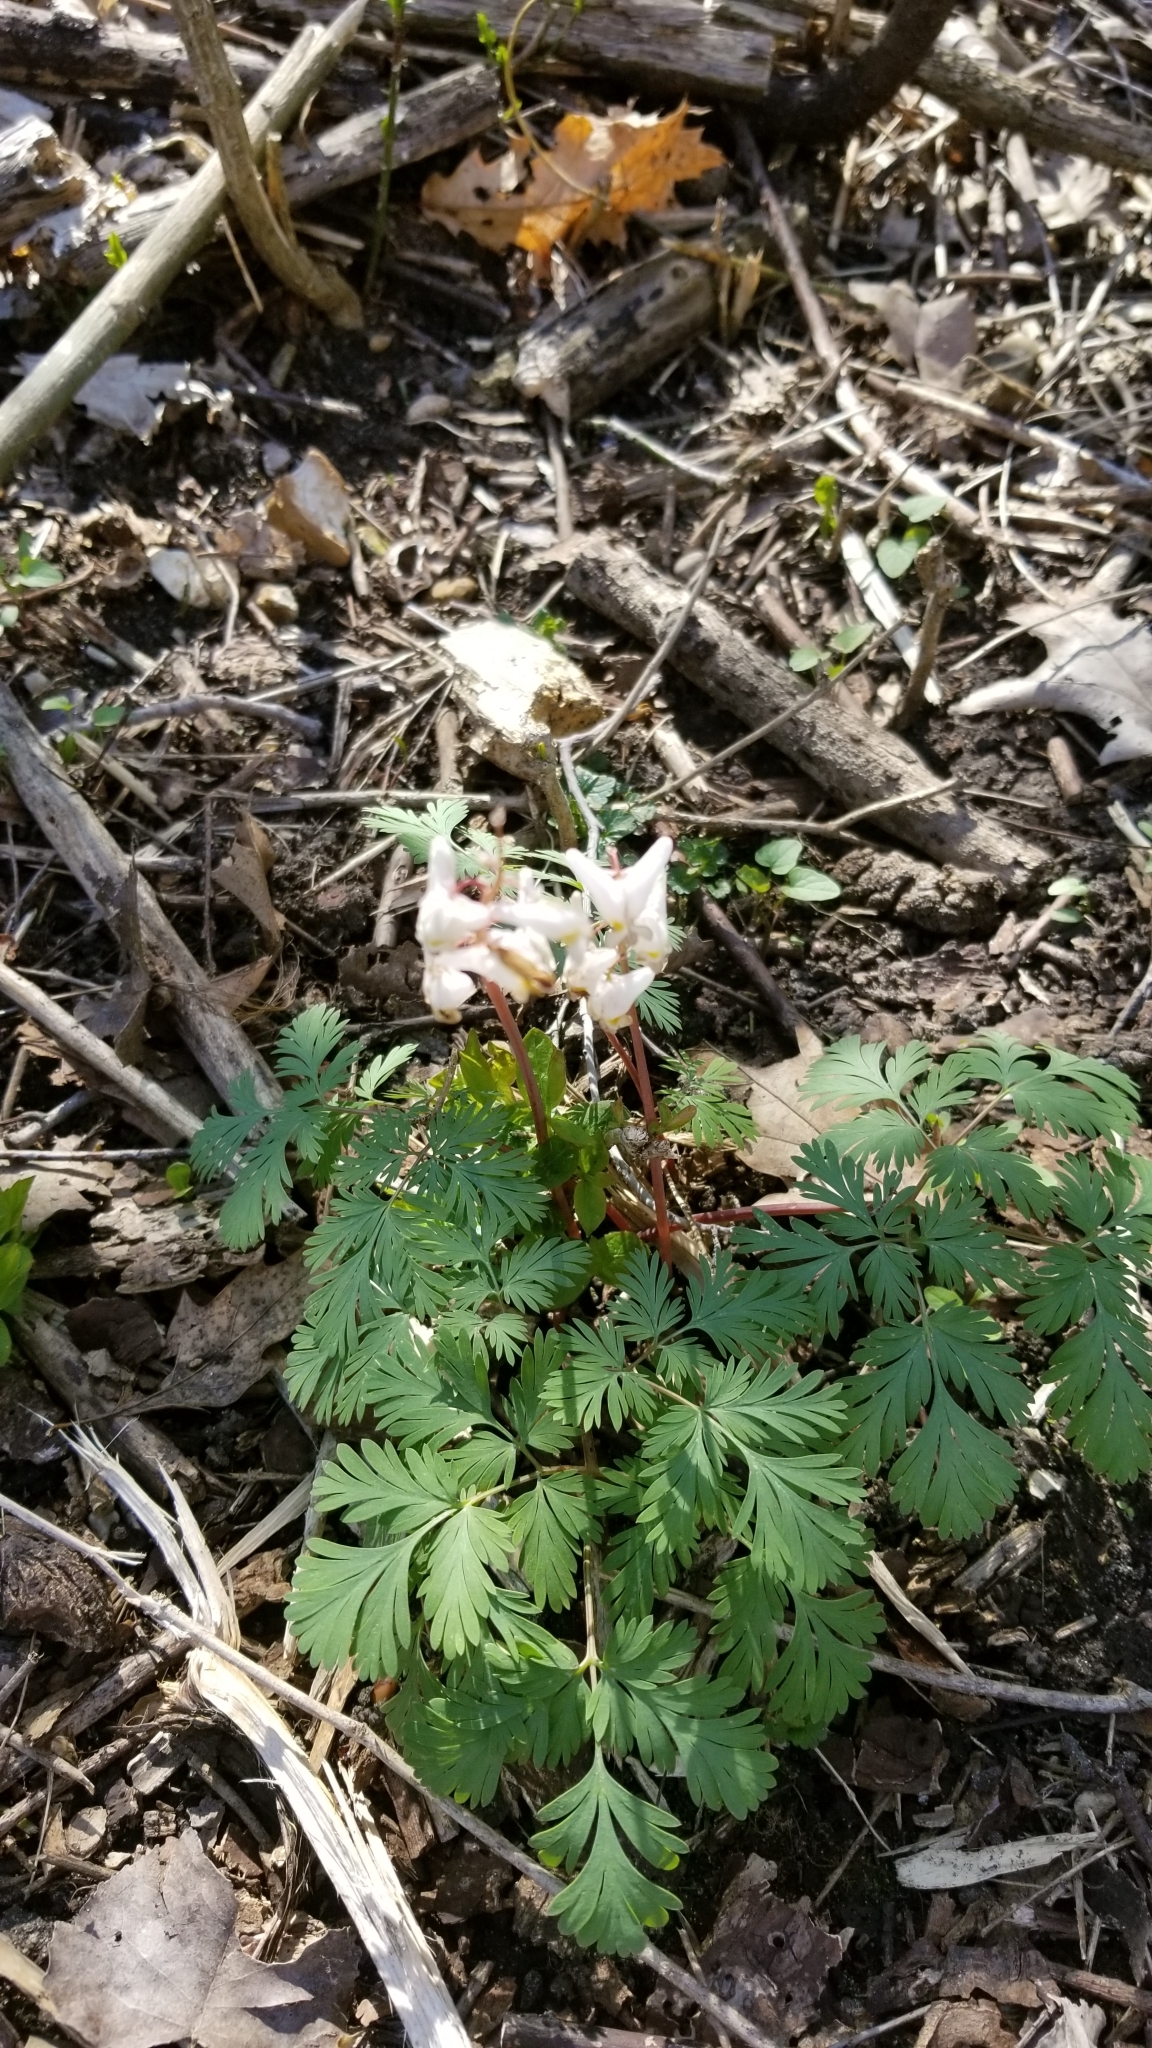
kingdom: Plantae
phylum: Tracheophyta
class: Magnoliopsida
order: Ranunculales
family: Papaveraceae
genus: Dicentra
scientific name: Dicentra cucullaria
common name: Dutchman's breeches
